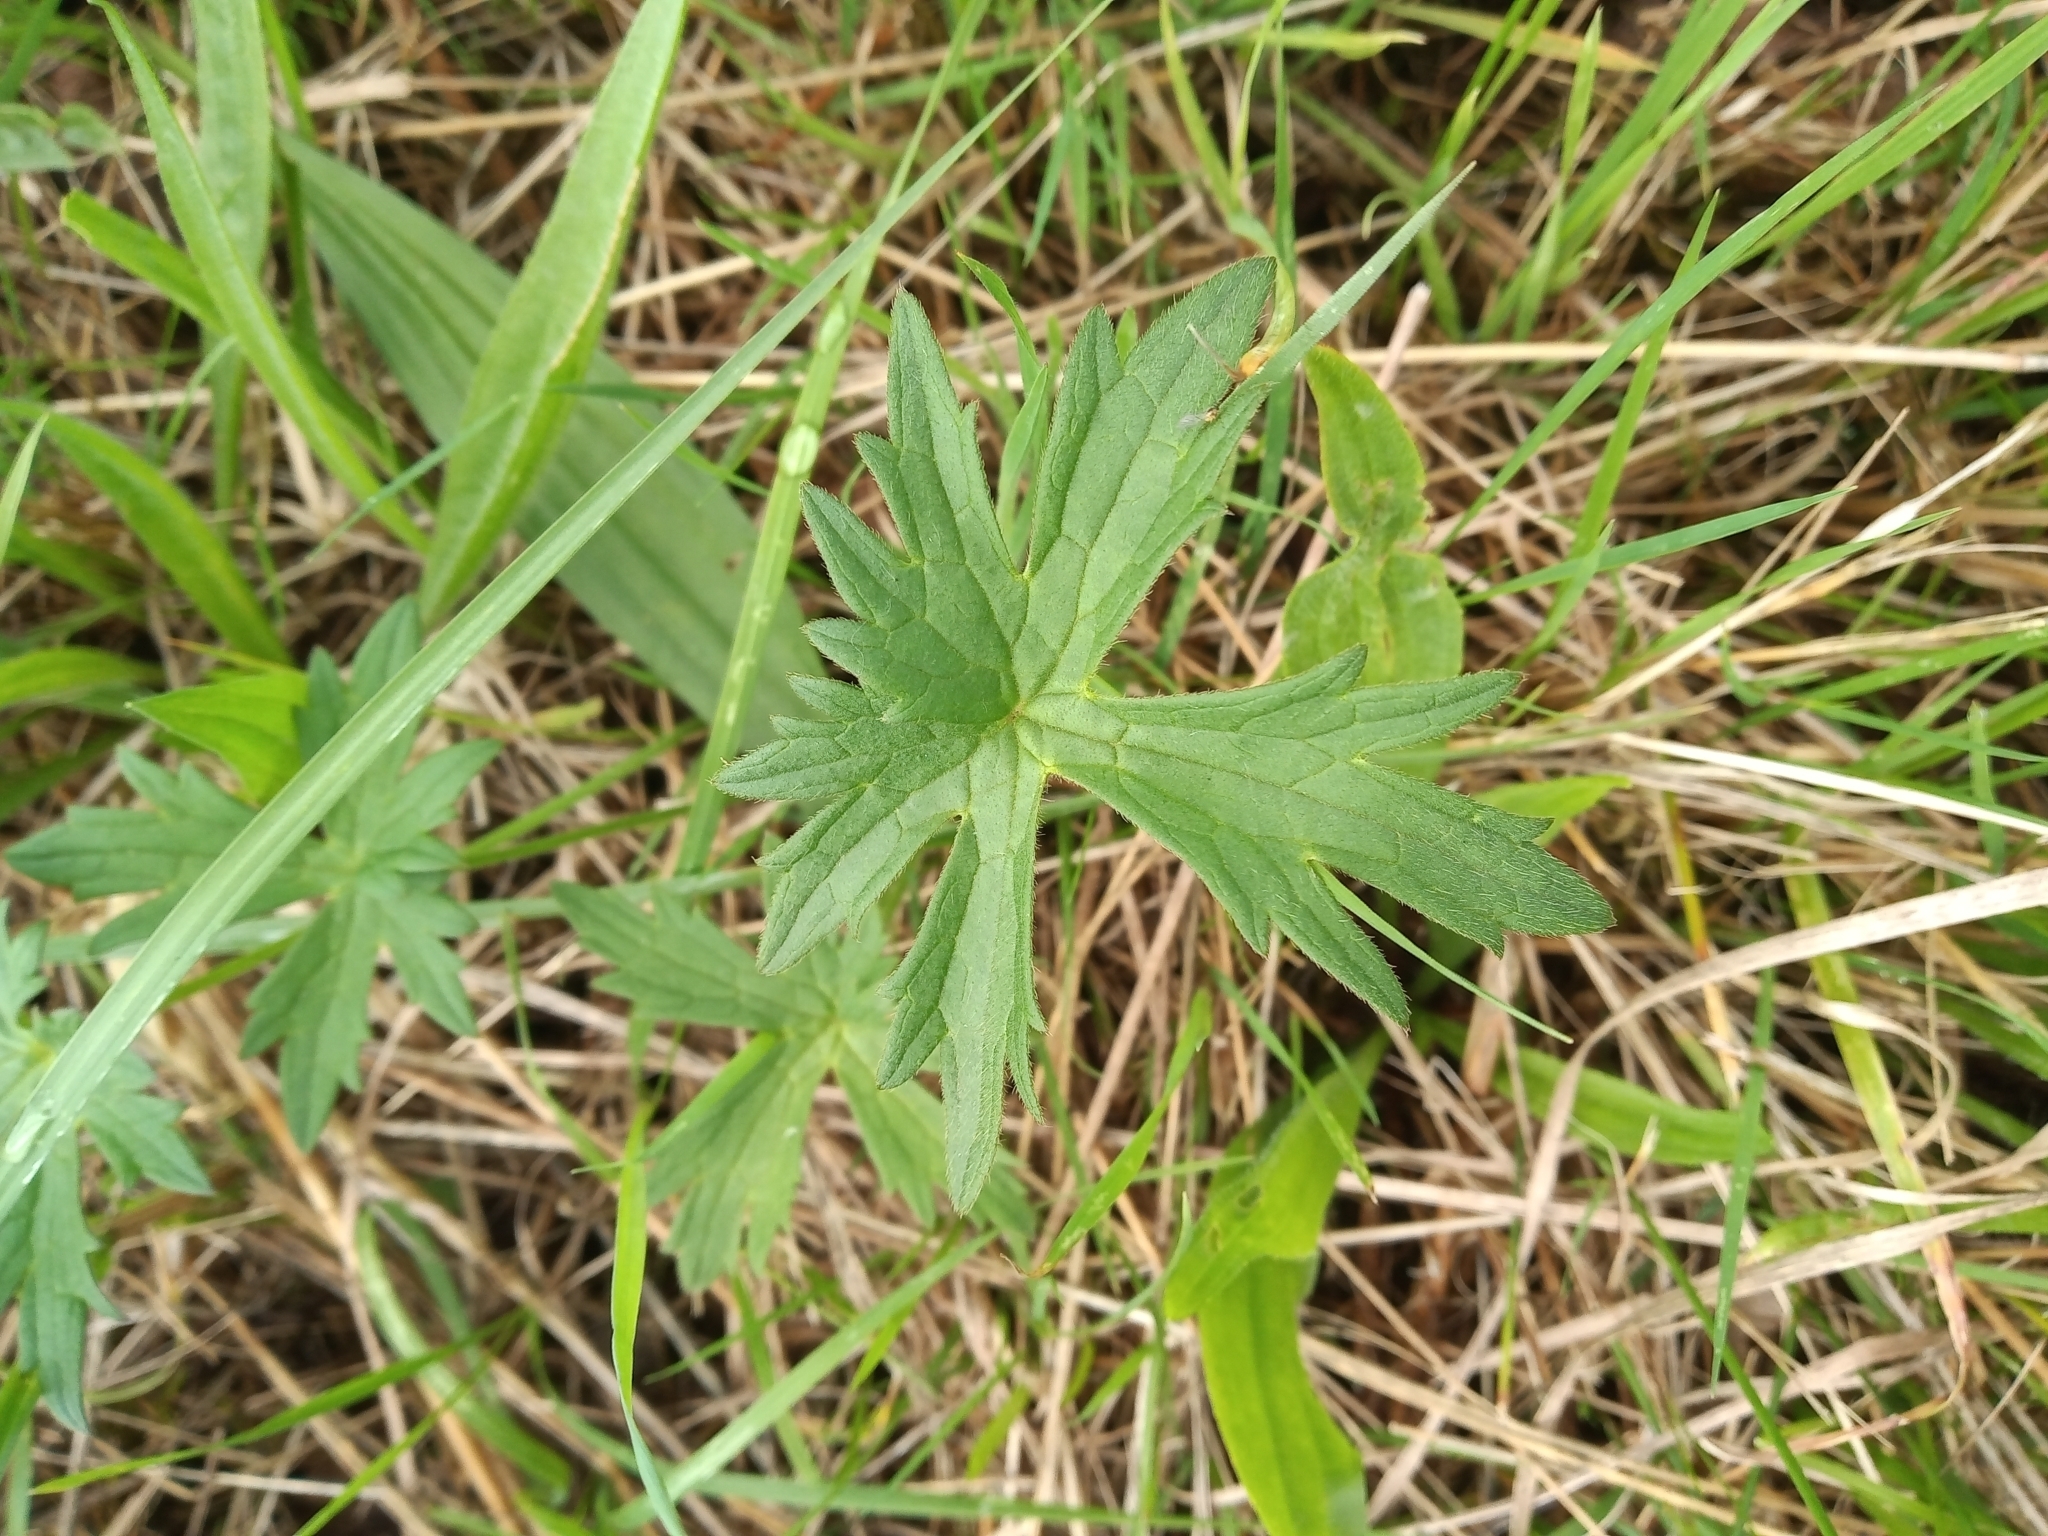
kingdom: Plantae
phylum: Tracheophyta
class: Magnoliopsida
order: Ranunculales
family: Ranunculaceae
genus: Ranunculus
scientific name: Ranunculus acris
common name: Meadow buttercup
